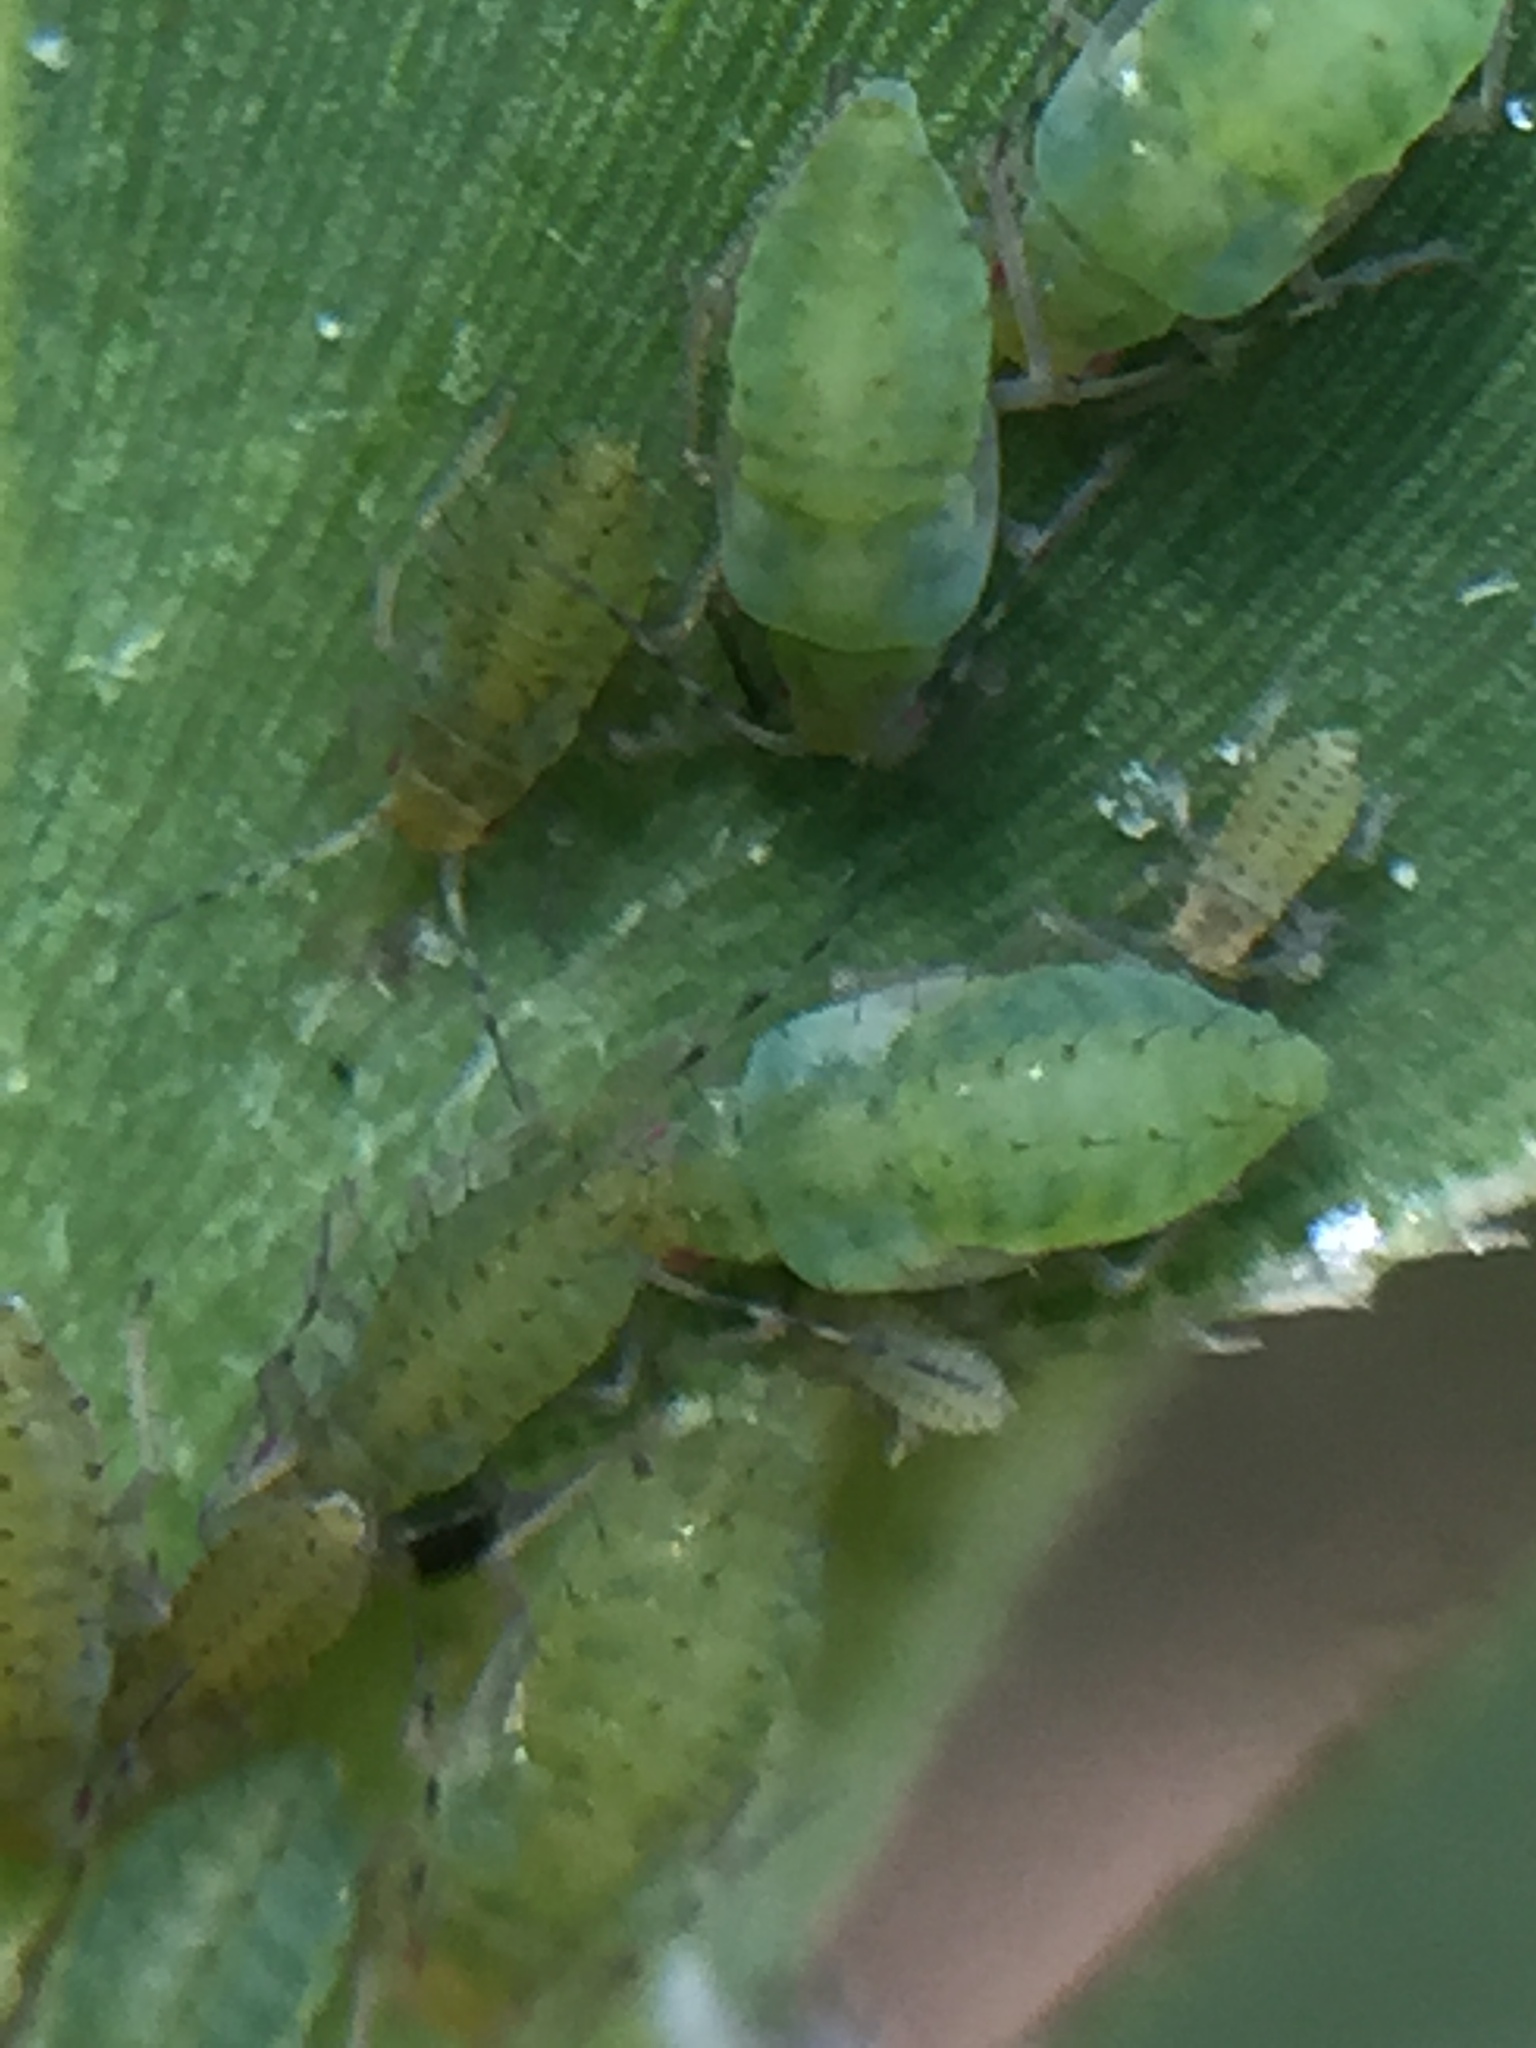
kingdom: Animalia
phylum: Arthropoda
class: Insecta
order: Hemiptera
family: Aphididae
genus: Takecallis
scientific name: Takecallis taiwana
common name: Aphid
